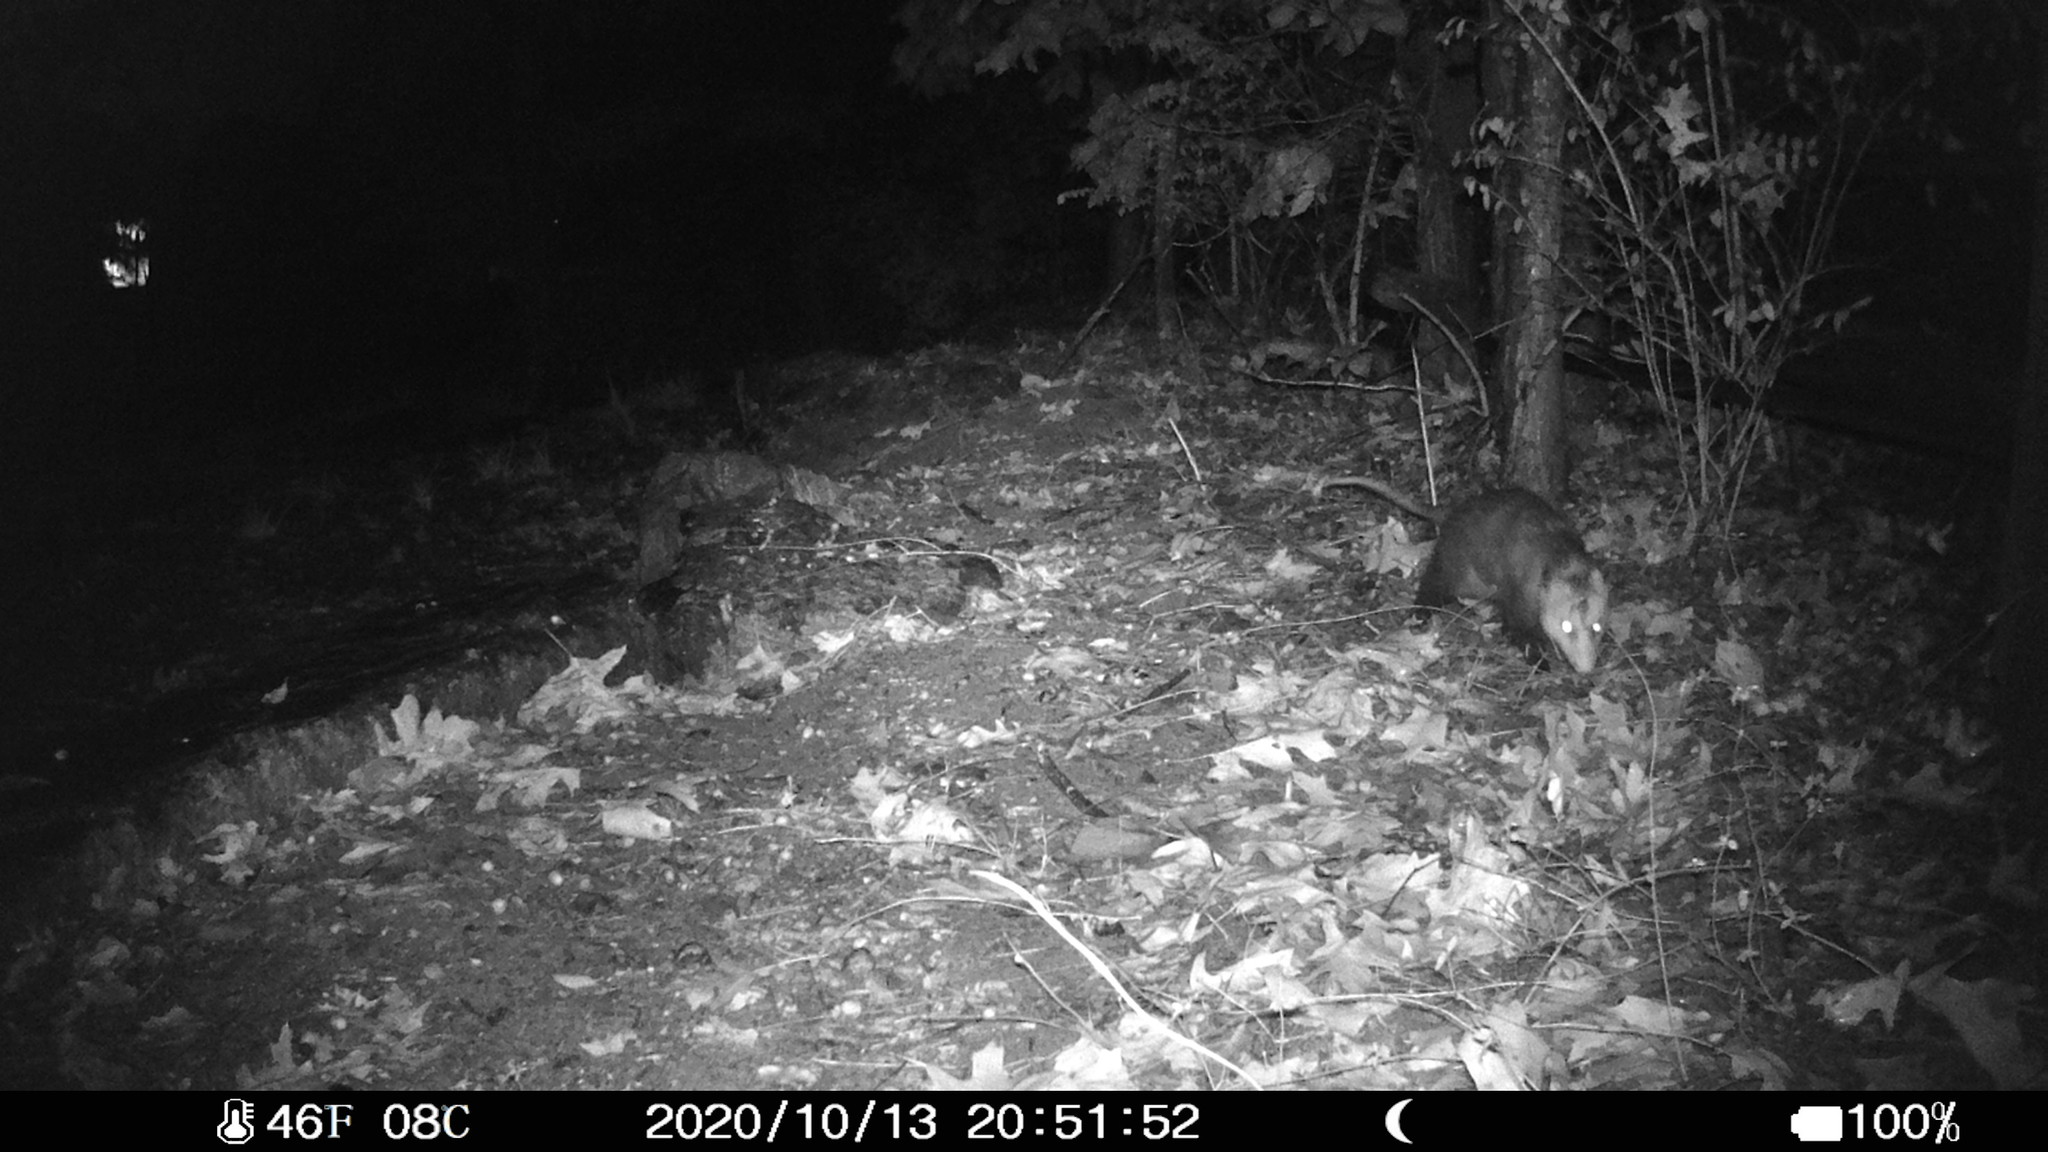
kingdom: Animalia
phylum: Chordata
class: Mammalia
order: Didelphimorphia
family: Didelphidae
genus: Didelphis
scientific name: Didelphis virginiana
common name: Virginia opossum
